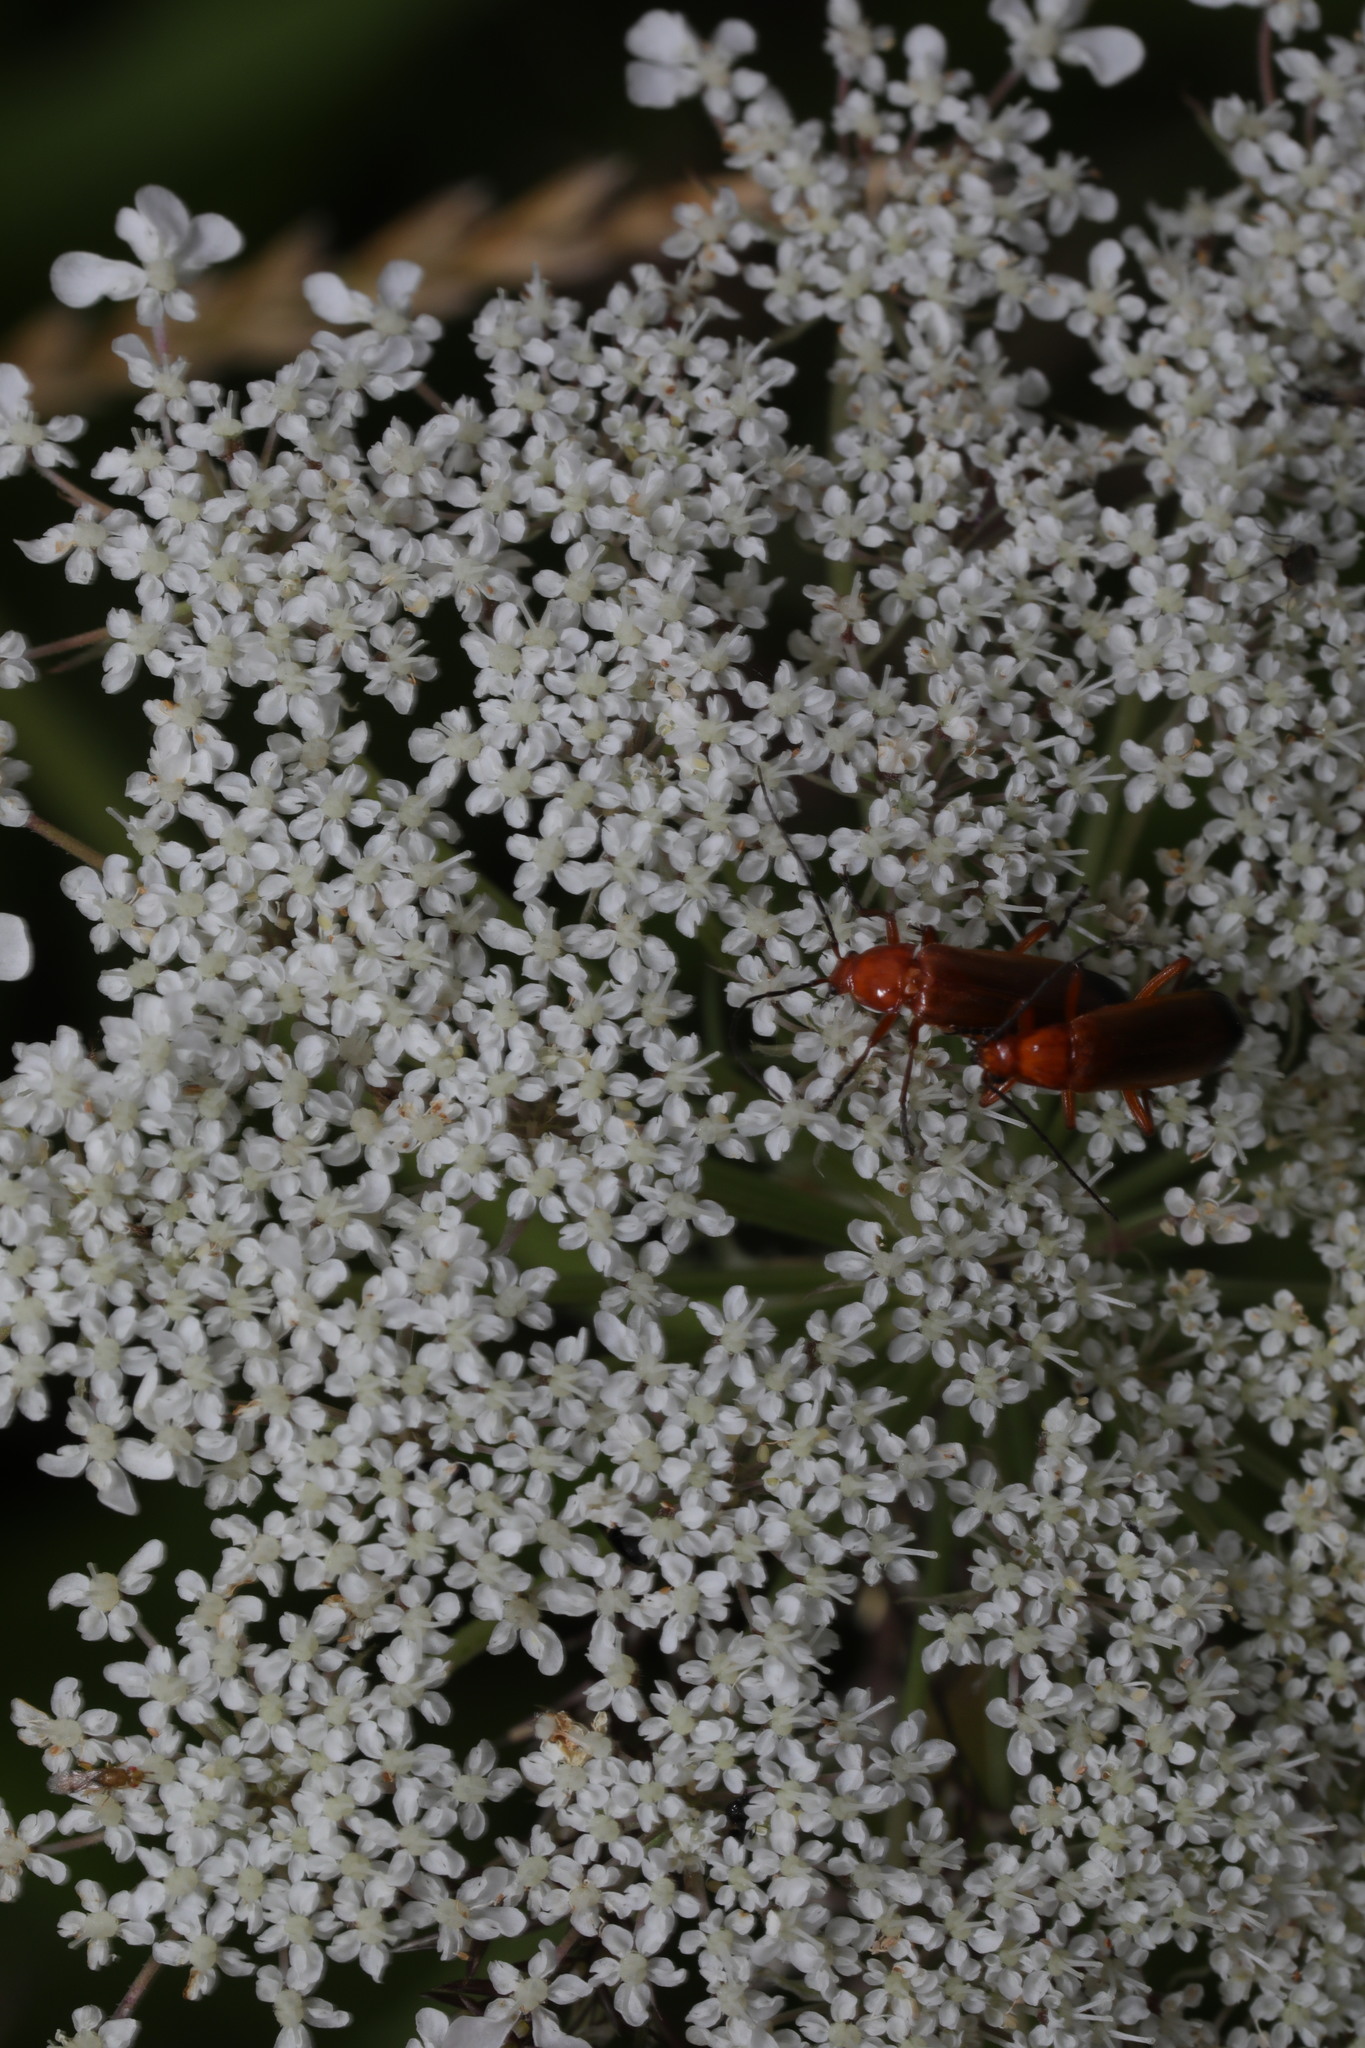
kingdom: Animalia
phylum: Arthropoda
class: Insecta
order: Coleoptera
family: Cantharidae
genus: Rhagonycha
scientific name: Rhagonycha fulva
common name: Common red soldier beetle
